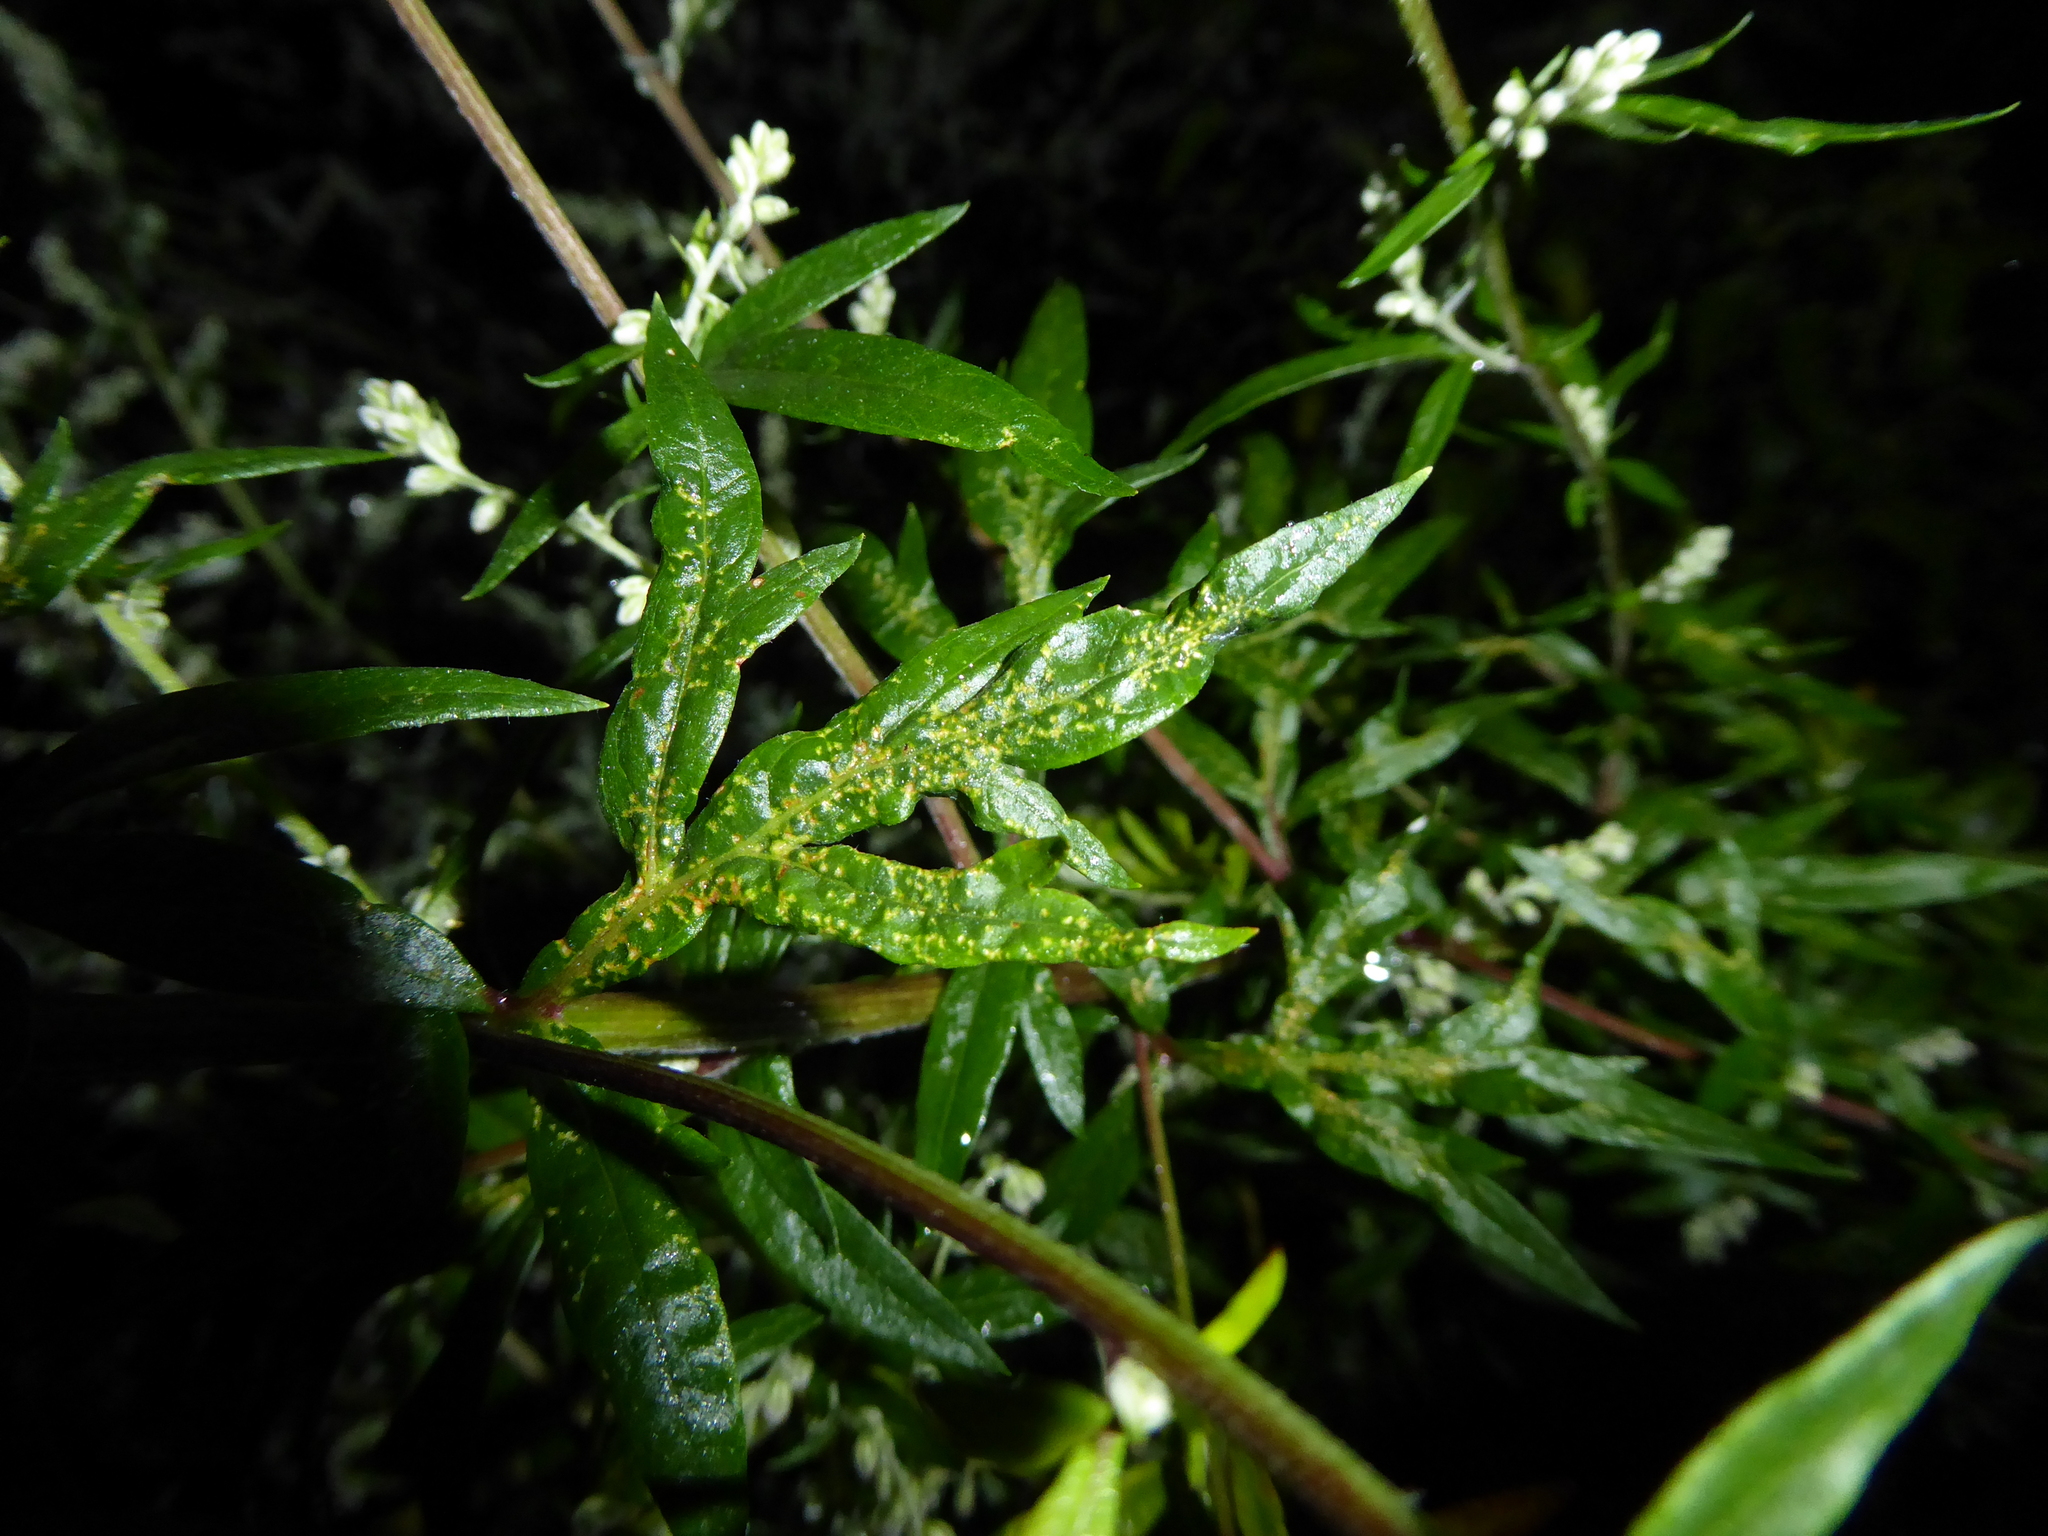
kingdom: Plantae
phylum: Tracheophyta
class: Magnoliopsida
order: Asterales
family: Asteraceae
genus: Artemisia
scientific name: Artemisia vulgaris
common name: Mugwort
